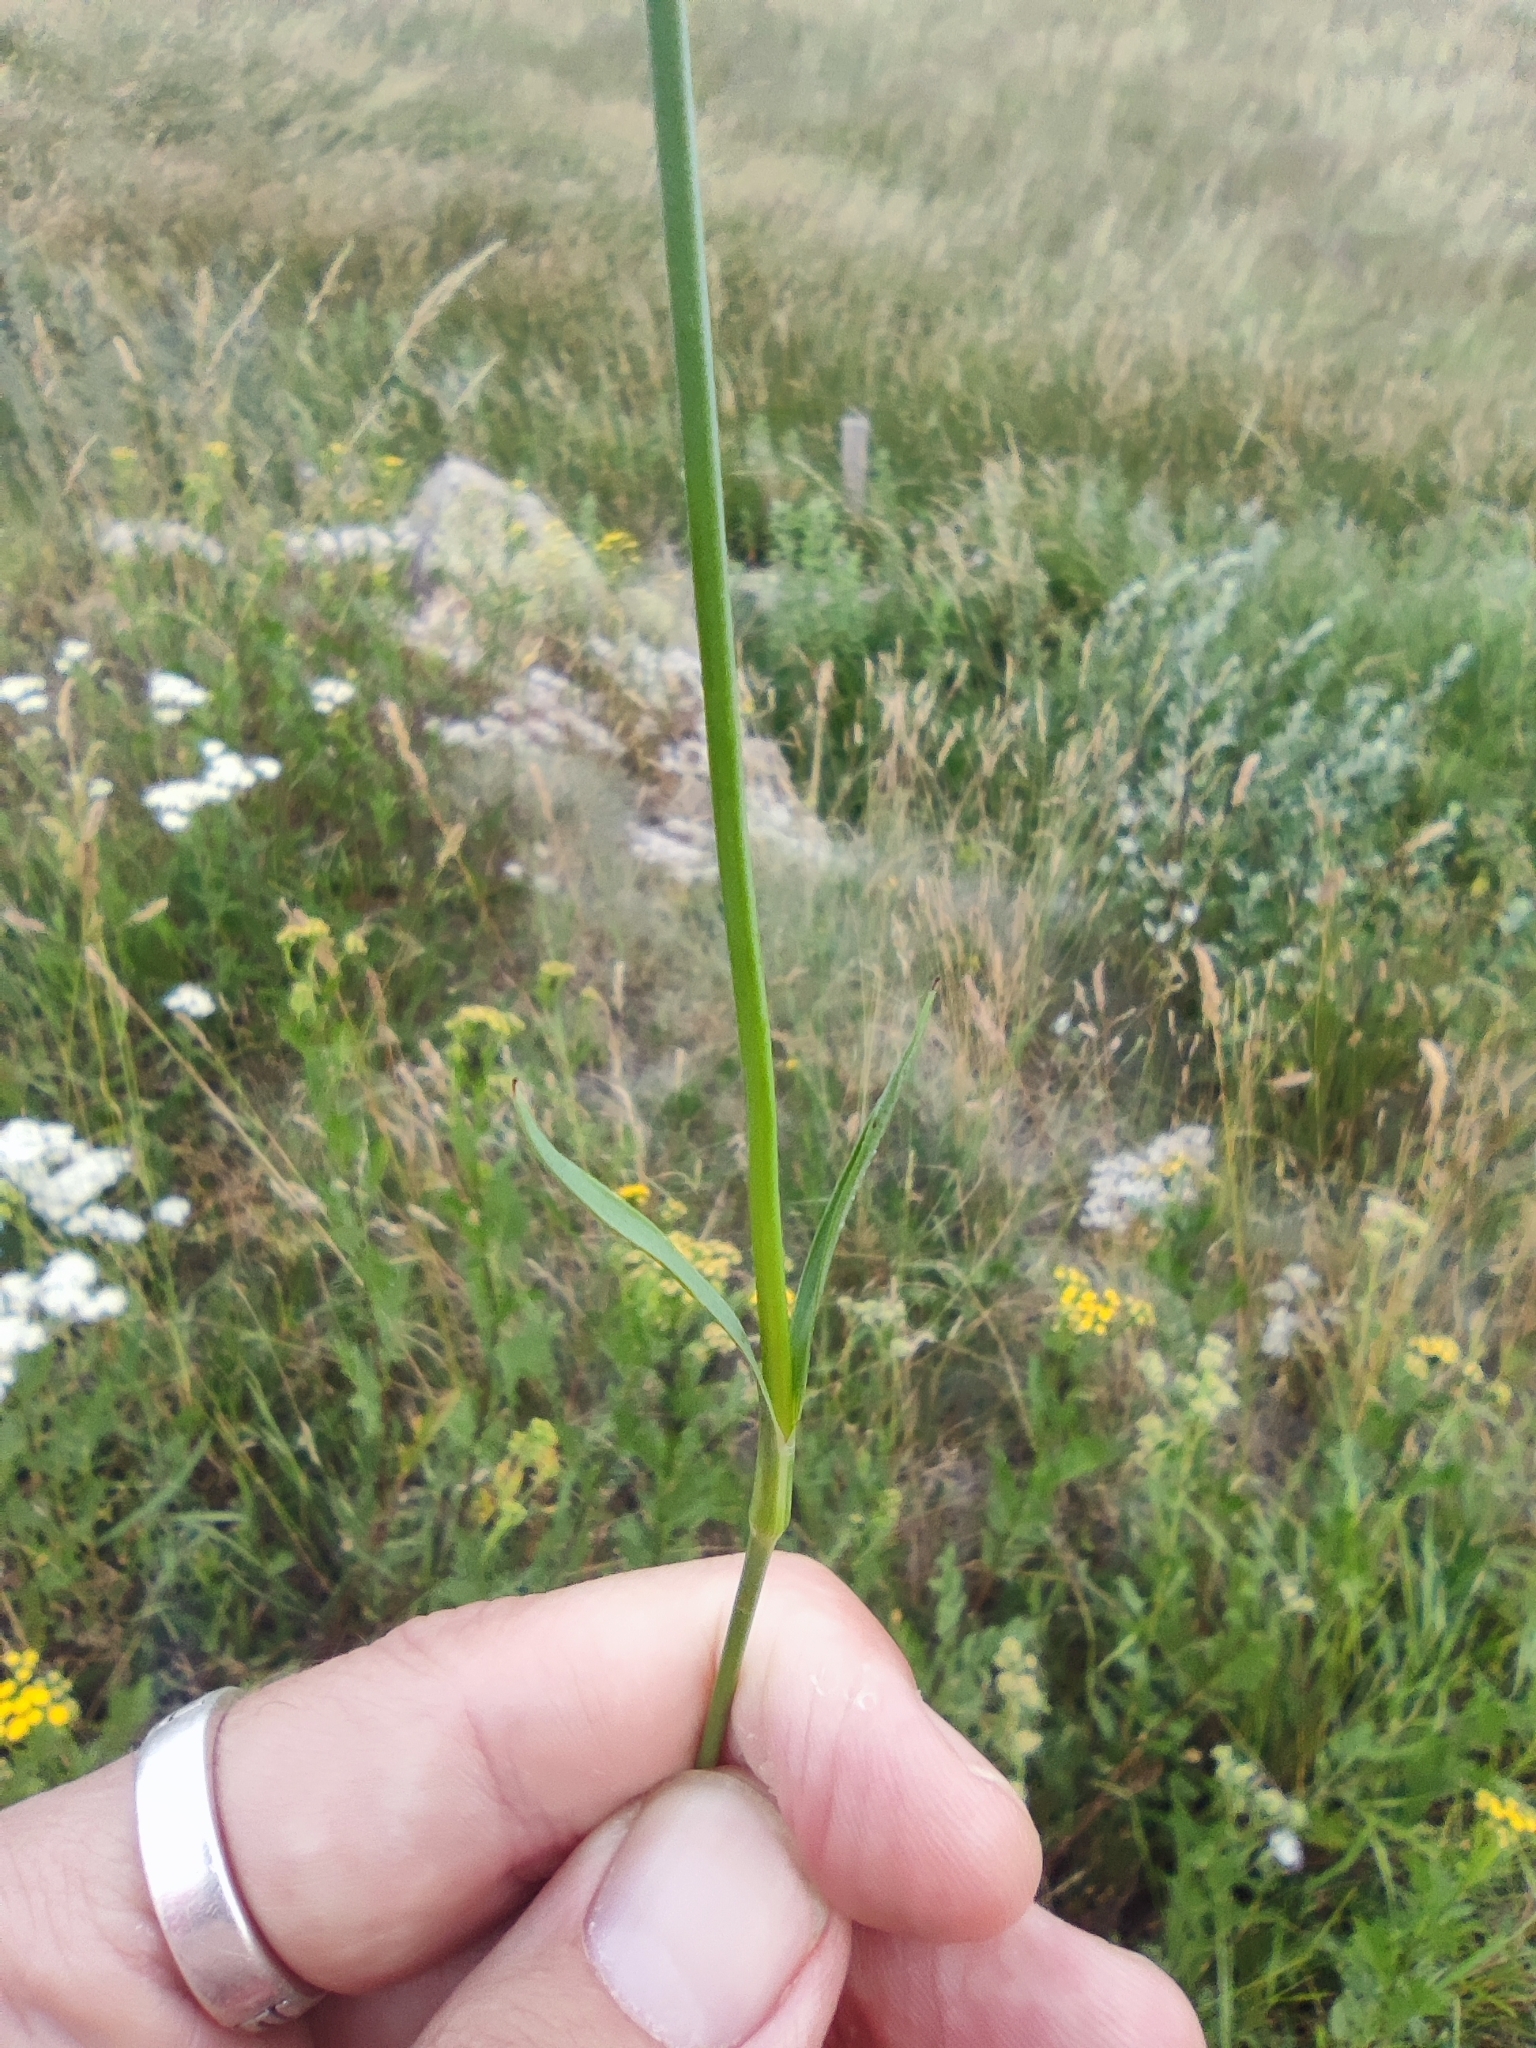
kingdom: Plantae
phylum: Tracheophyta
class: Magnoliopsida
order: Caryophyllales
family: Caryophyllaceae
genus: Dianthus
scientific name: Dianthus carthusianorum
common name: Carthusian pink
